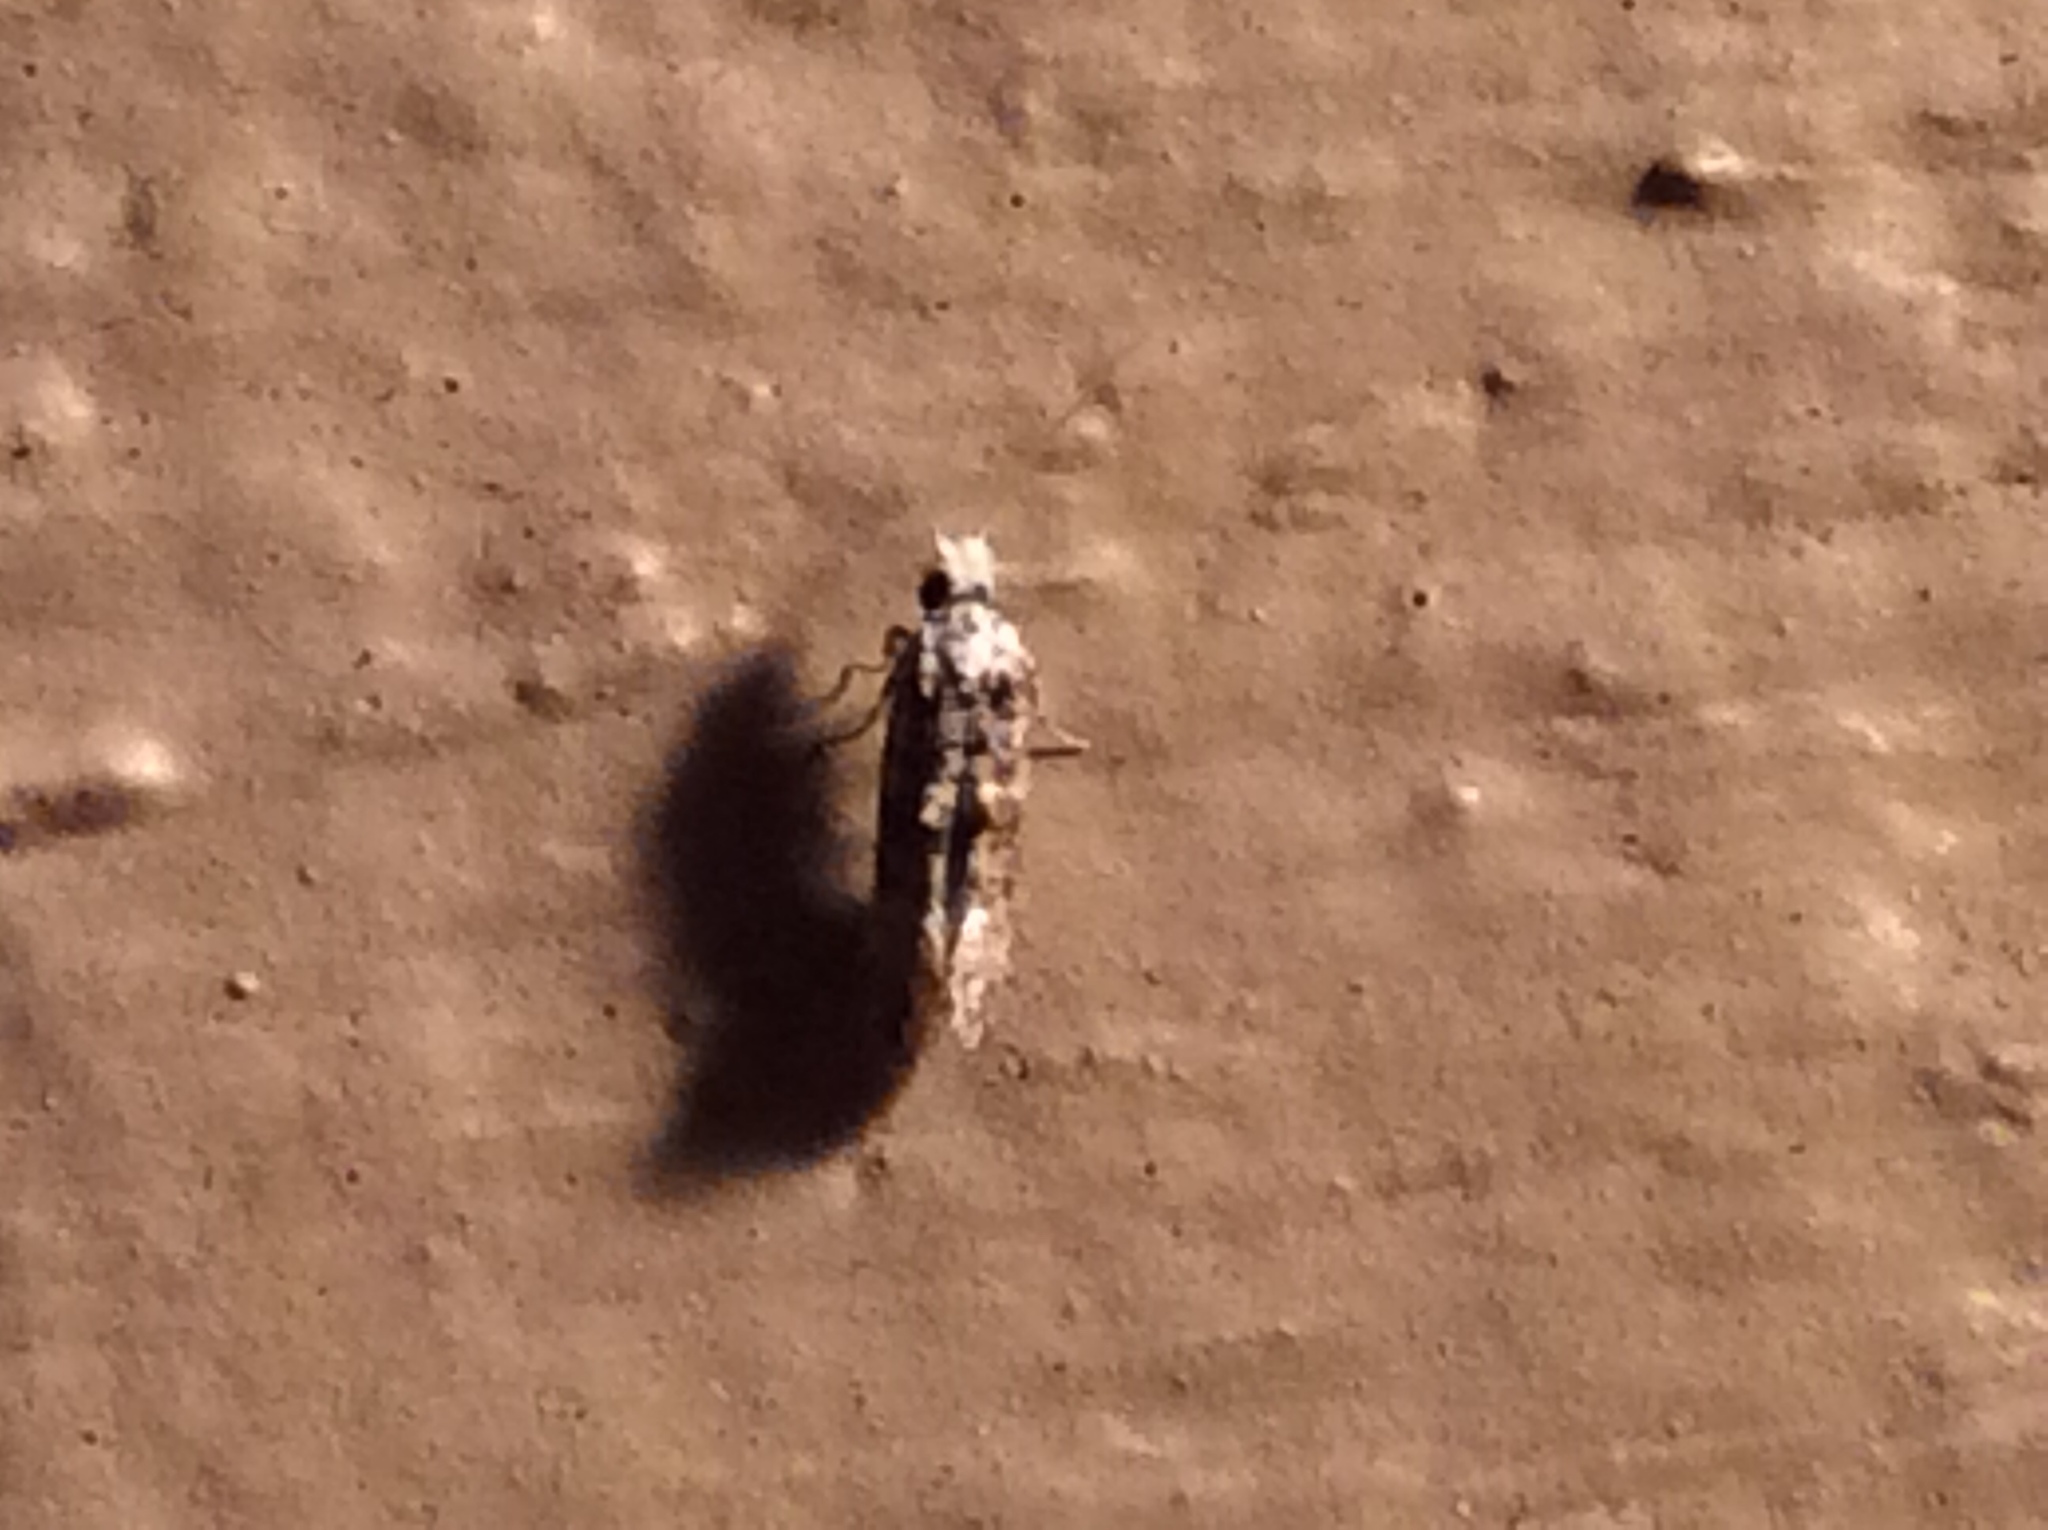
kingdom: Animalia
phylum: Arthropoda
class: Insecta
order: Lepidoptera
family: Tineidae
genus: Xylesthia
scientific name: Xylesthia pruniramiella
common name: Clemens' bark moth
